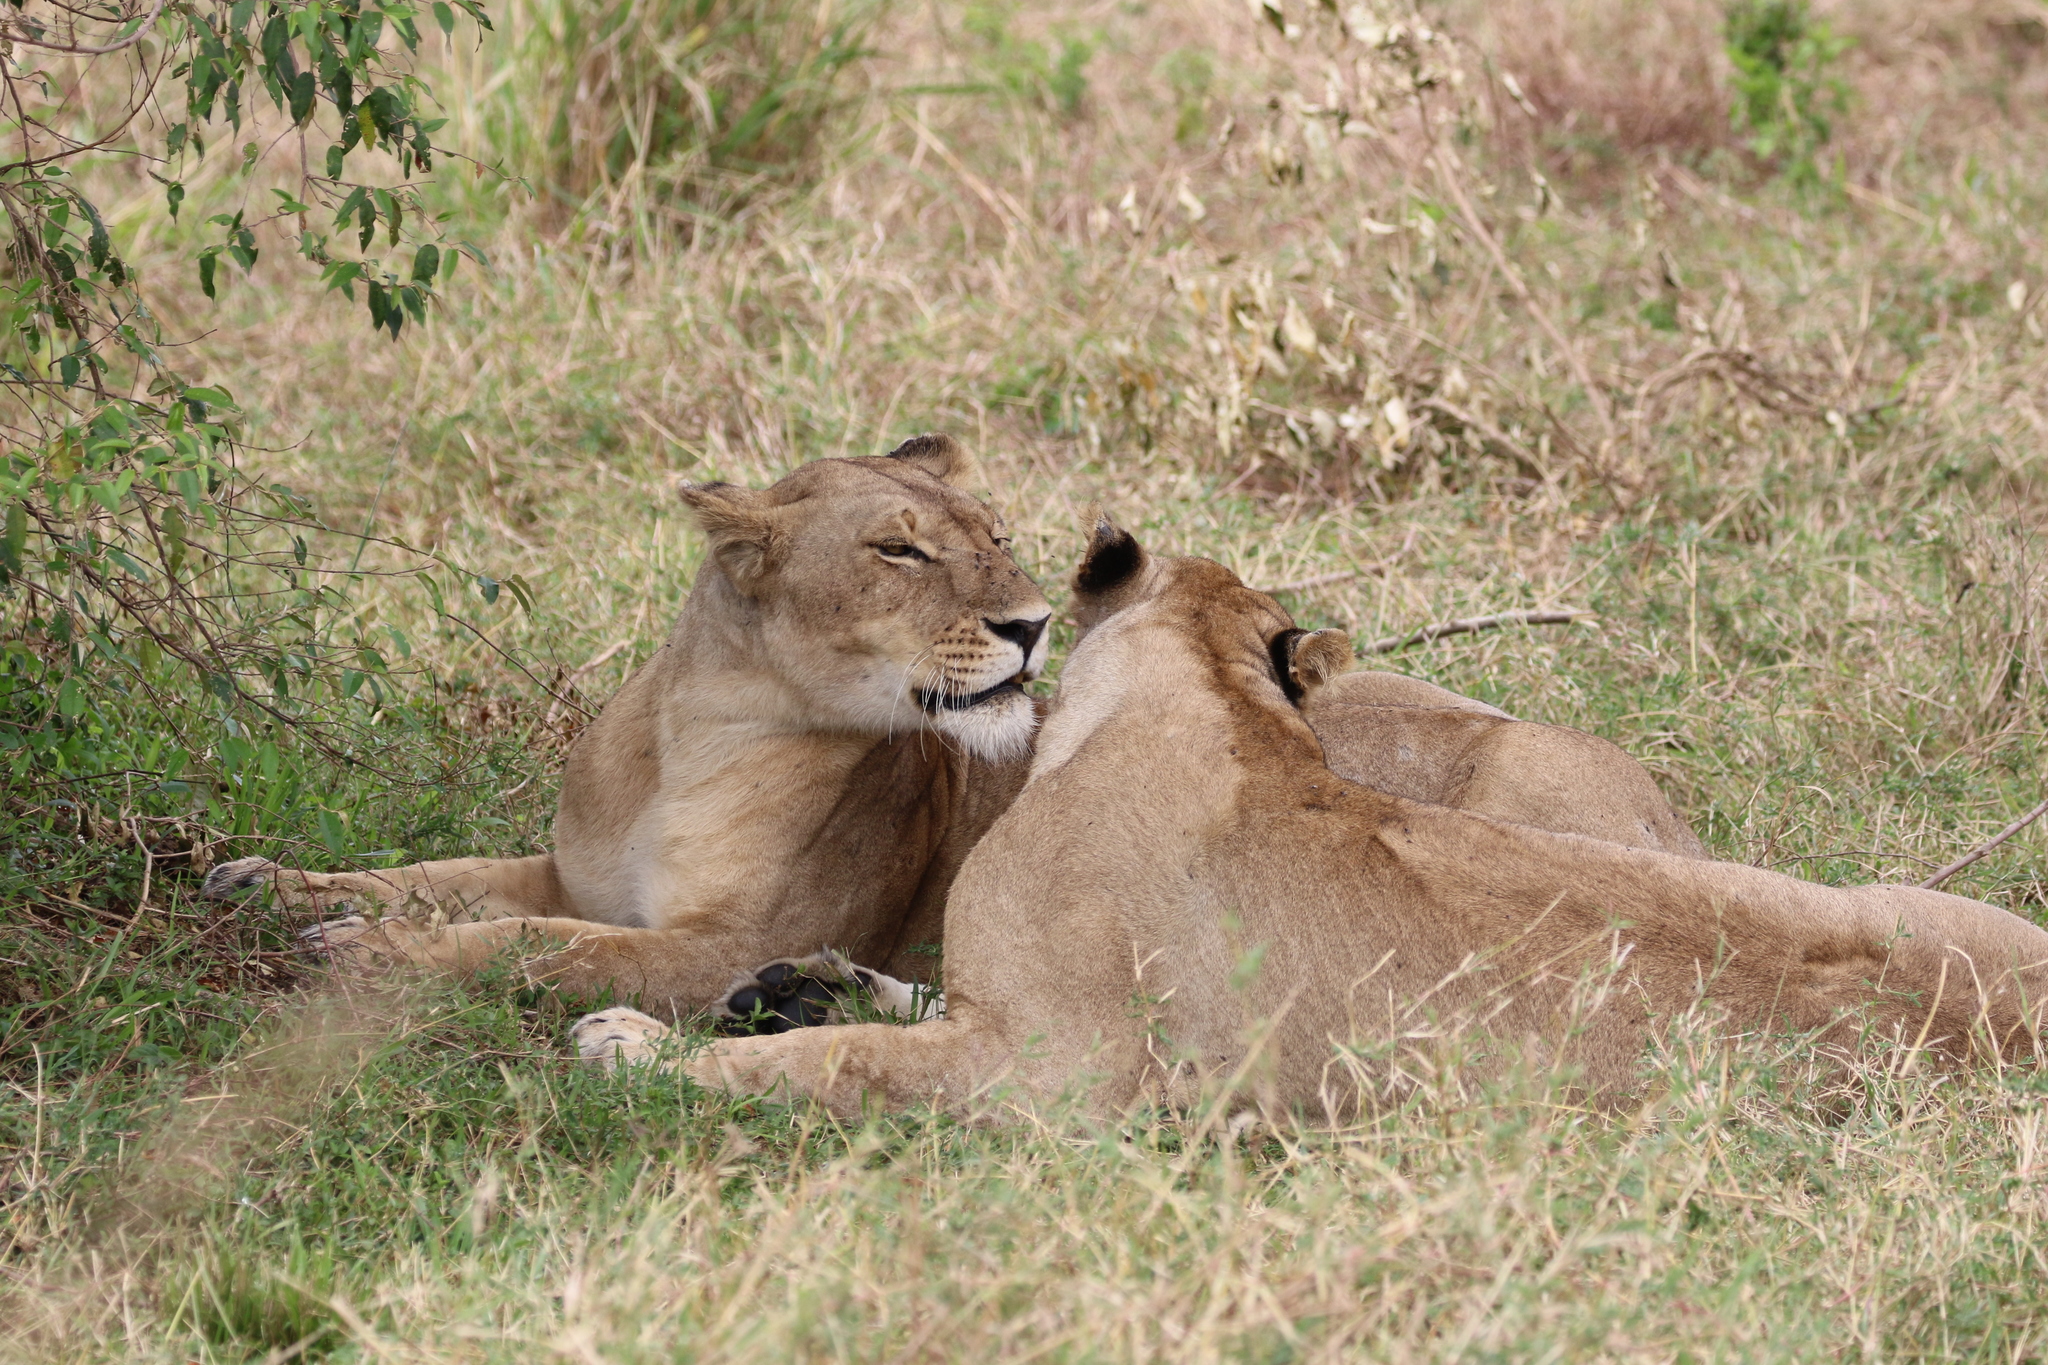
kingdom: Animalia
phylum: Chordata
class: Mammalia
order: Carnivora
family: Felidae
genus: Panthera
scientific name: Panthera leo
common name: Lion
